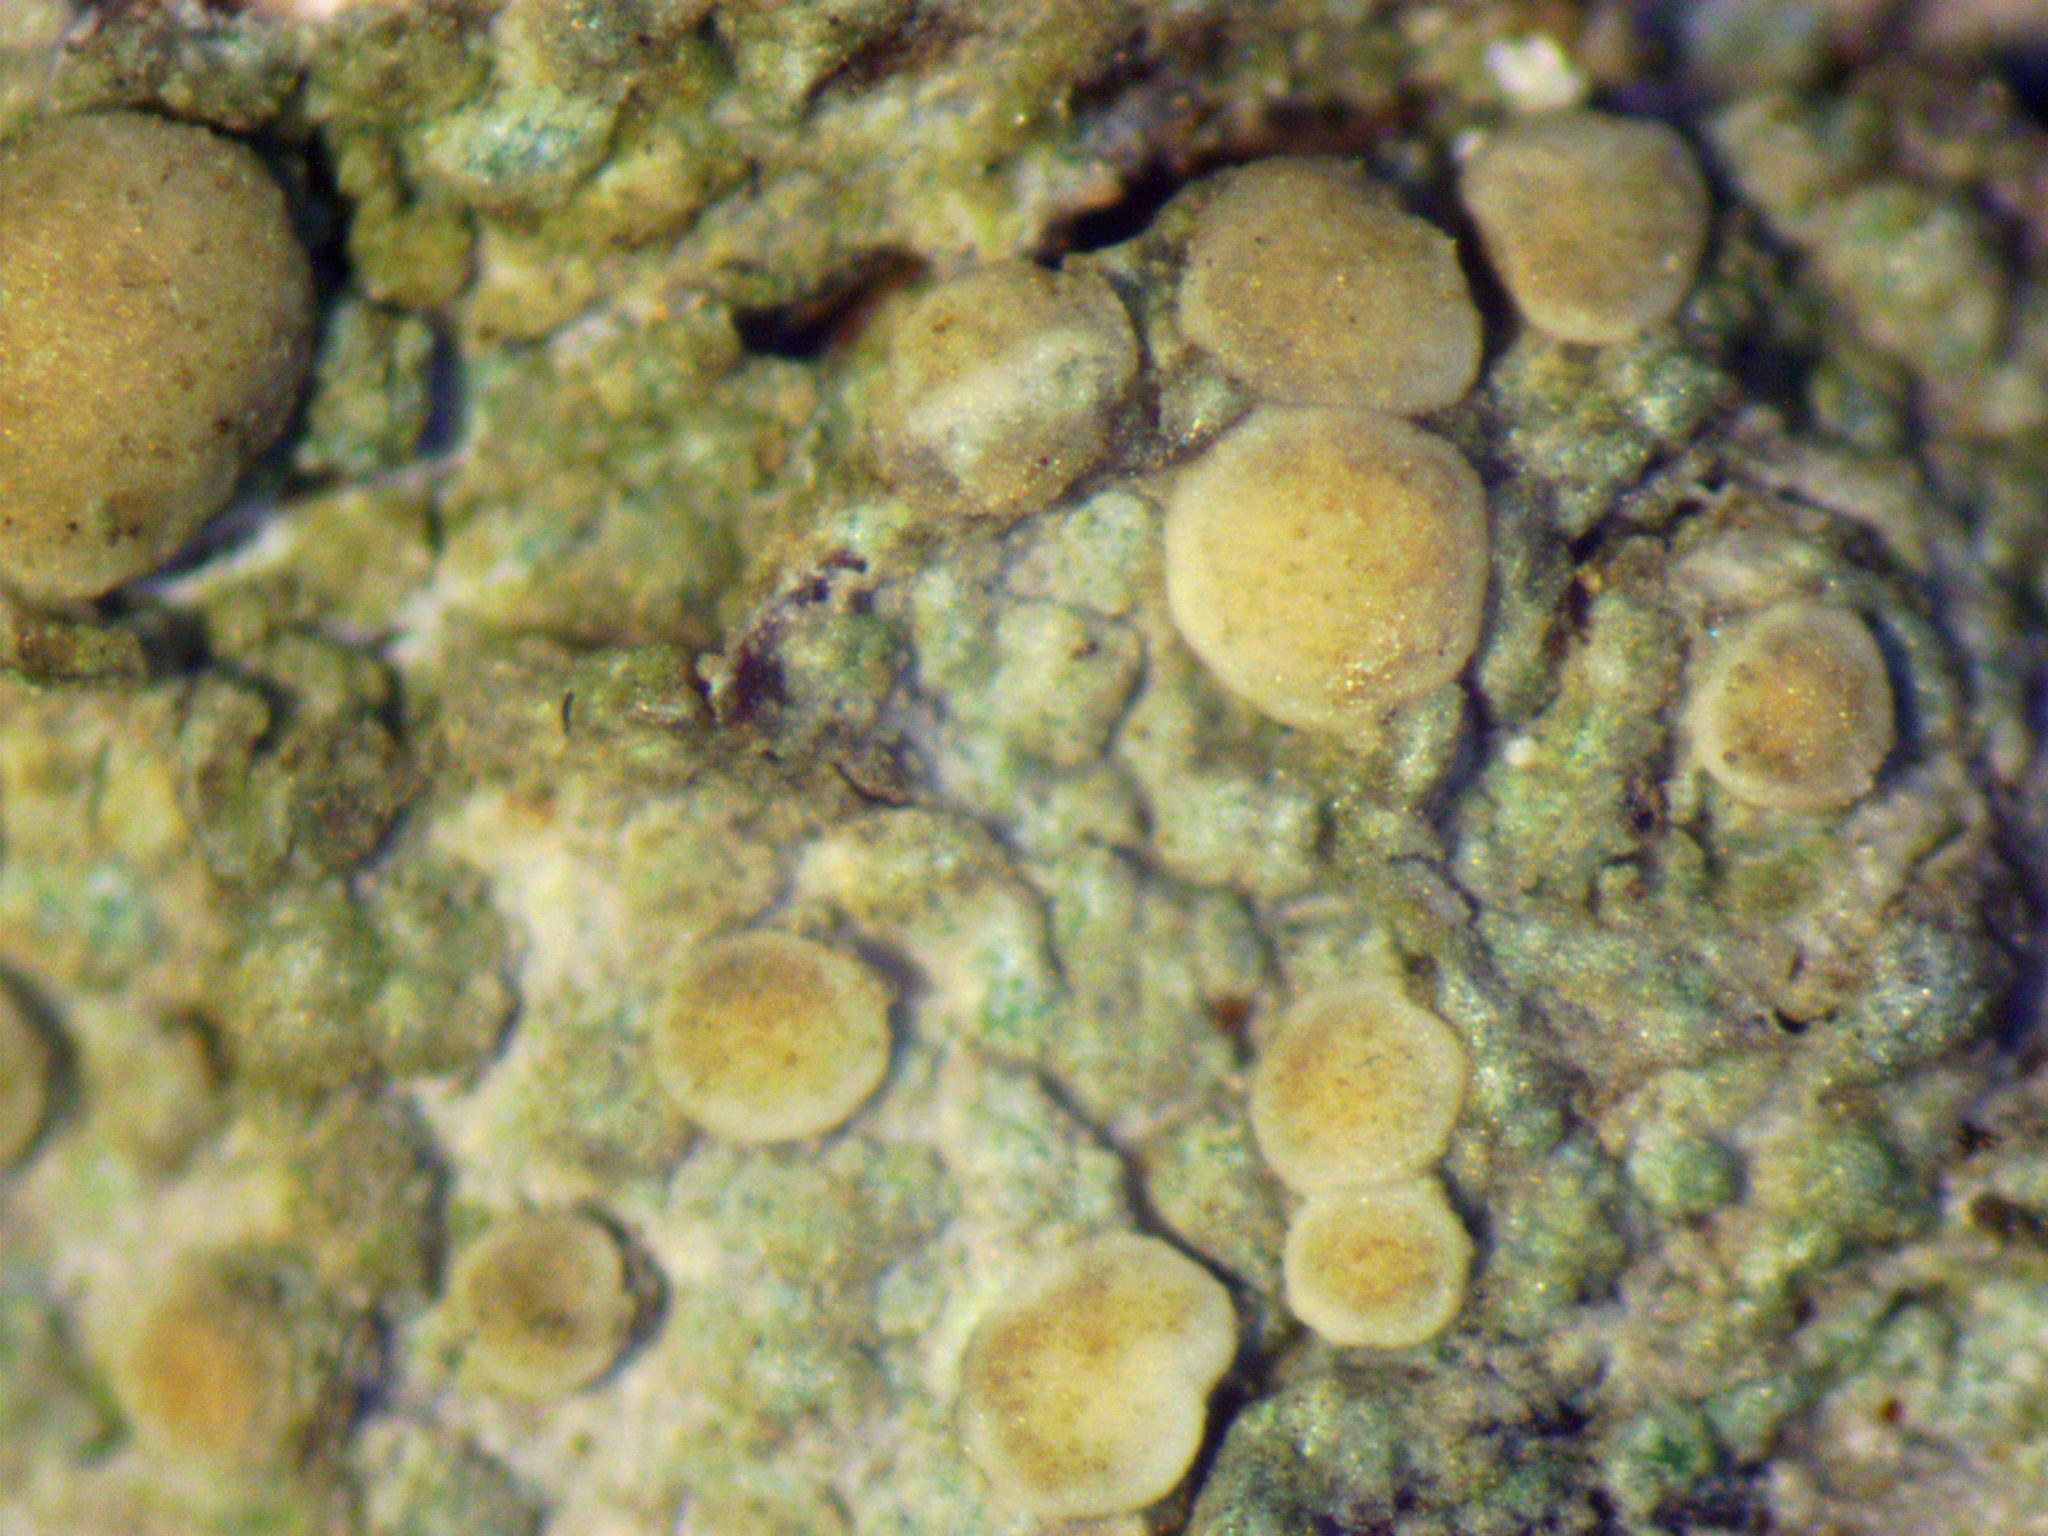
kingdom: Fungi
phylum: Ascomycota
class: Lecanoromycetes
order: Lecanorales
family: Ramalinaceae
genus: Biatora
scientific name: Biatora helvola
